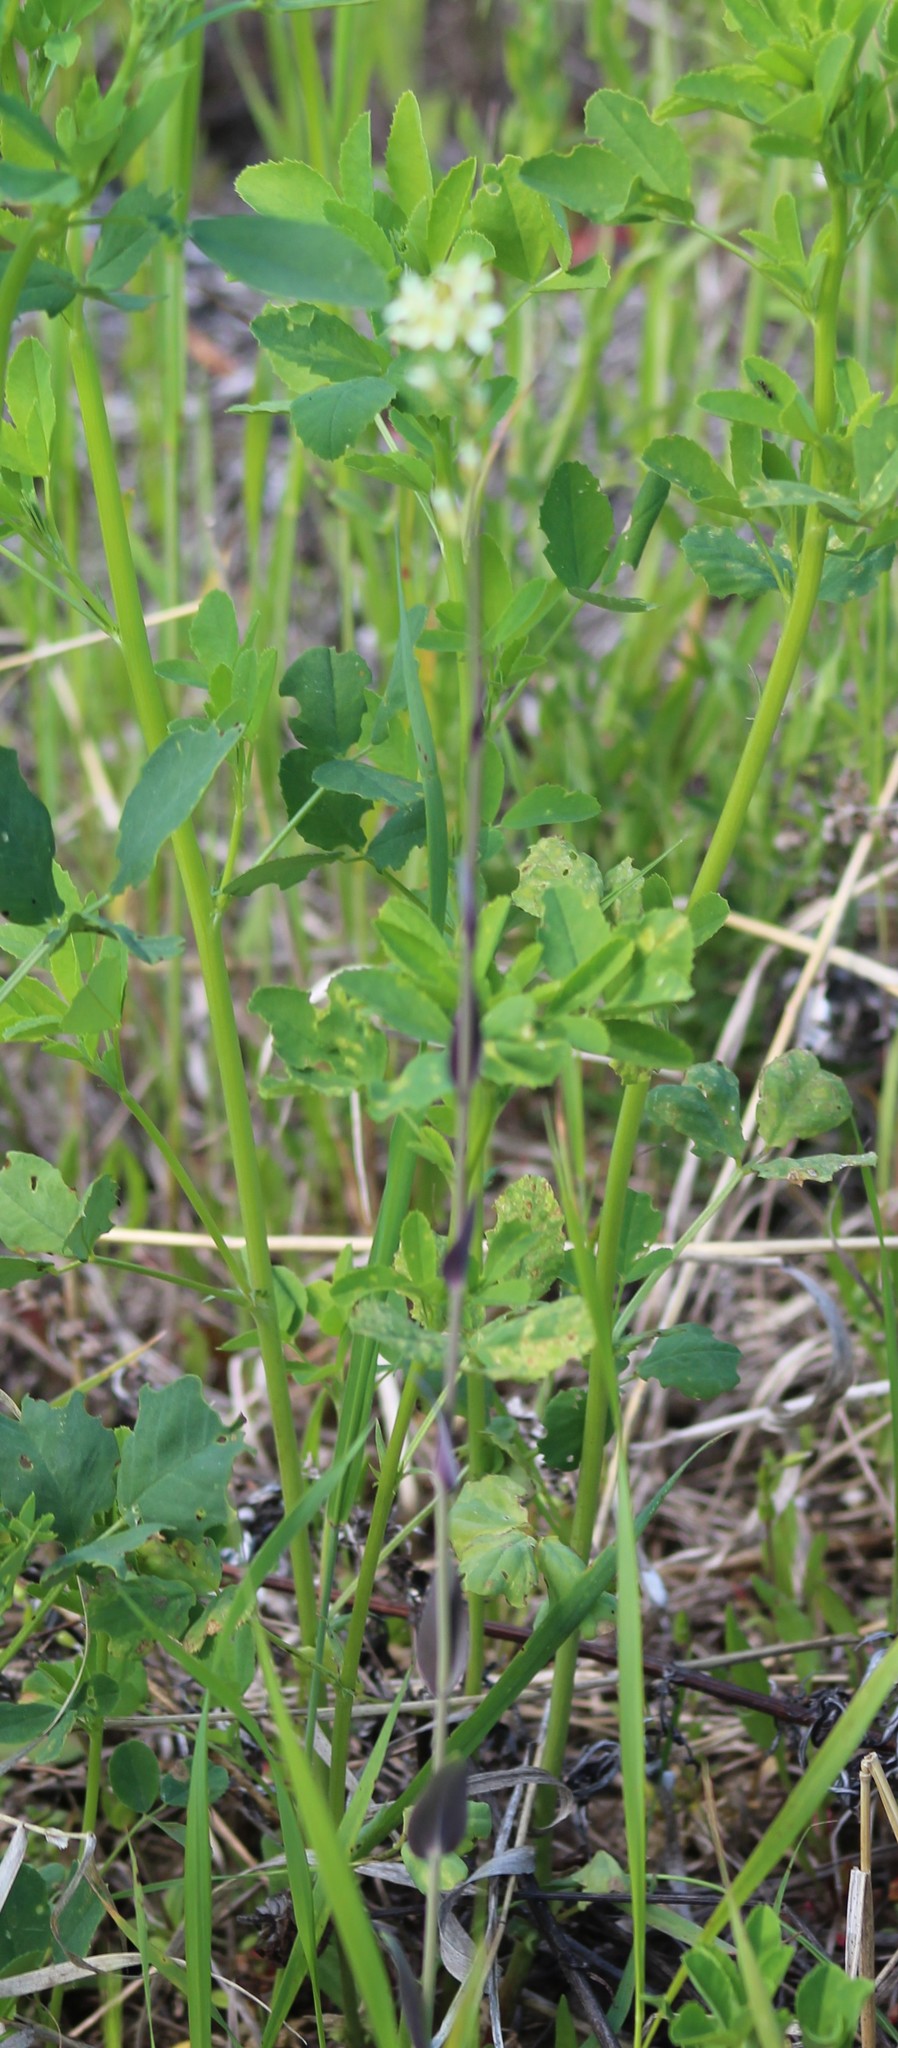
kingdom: Plantae
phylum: Tracheophyta
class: Magnoliopsida
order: Brassicales
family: Brassicaceae
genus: Turritis
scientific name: Turritis glabra
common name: Tower rockcress
